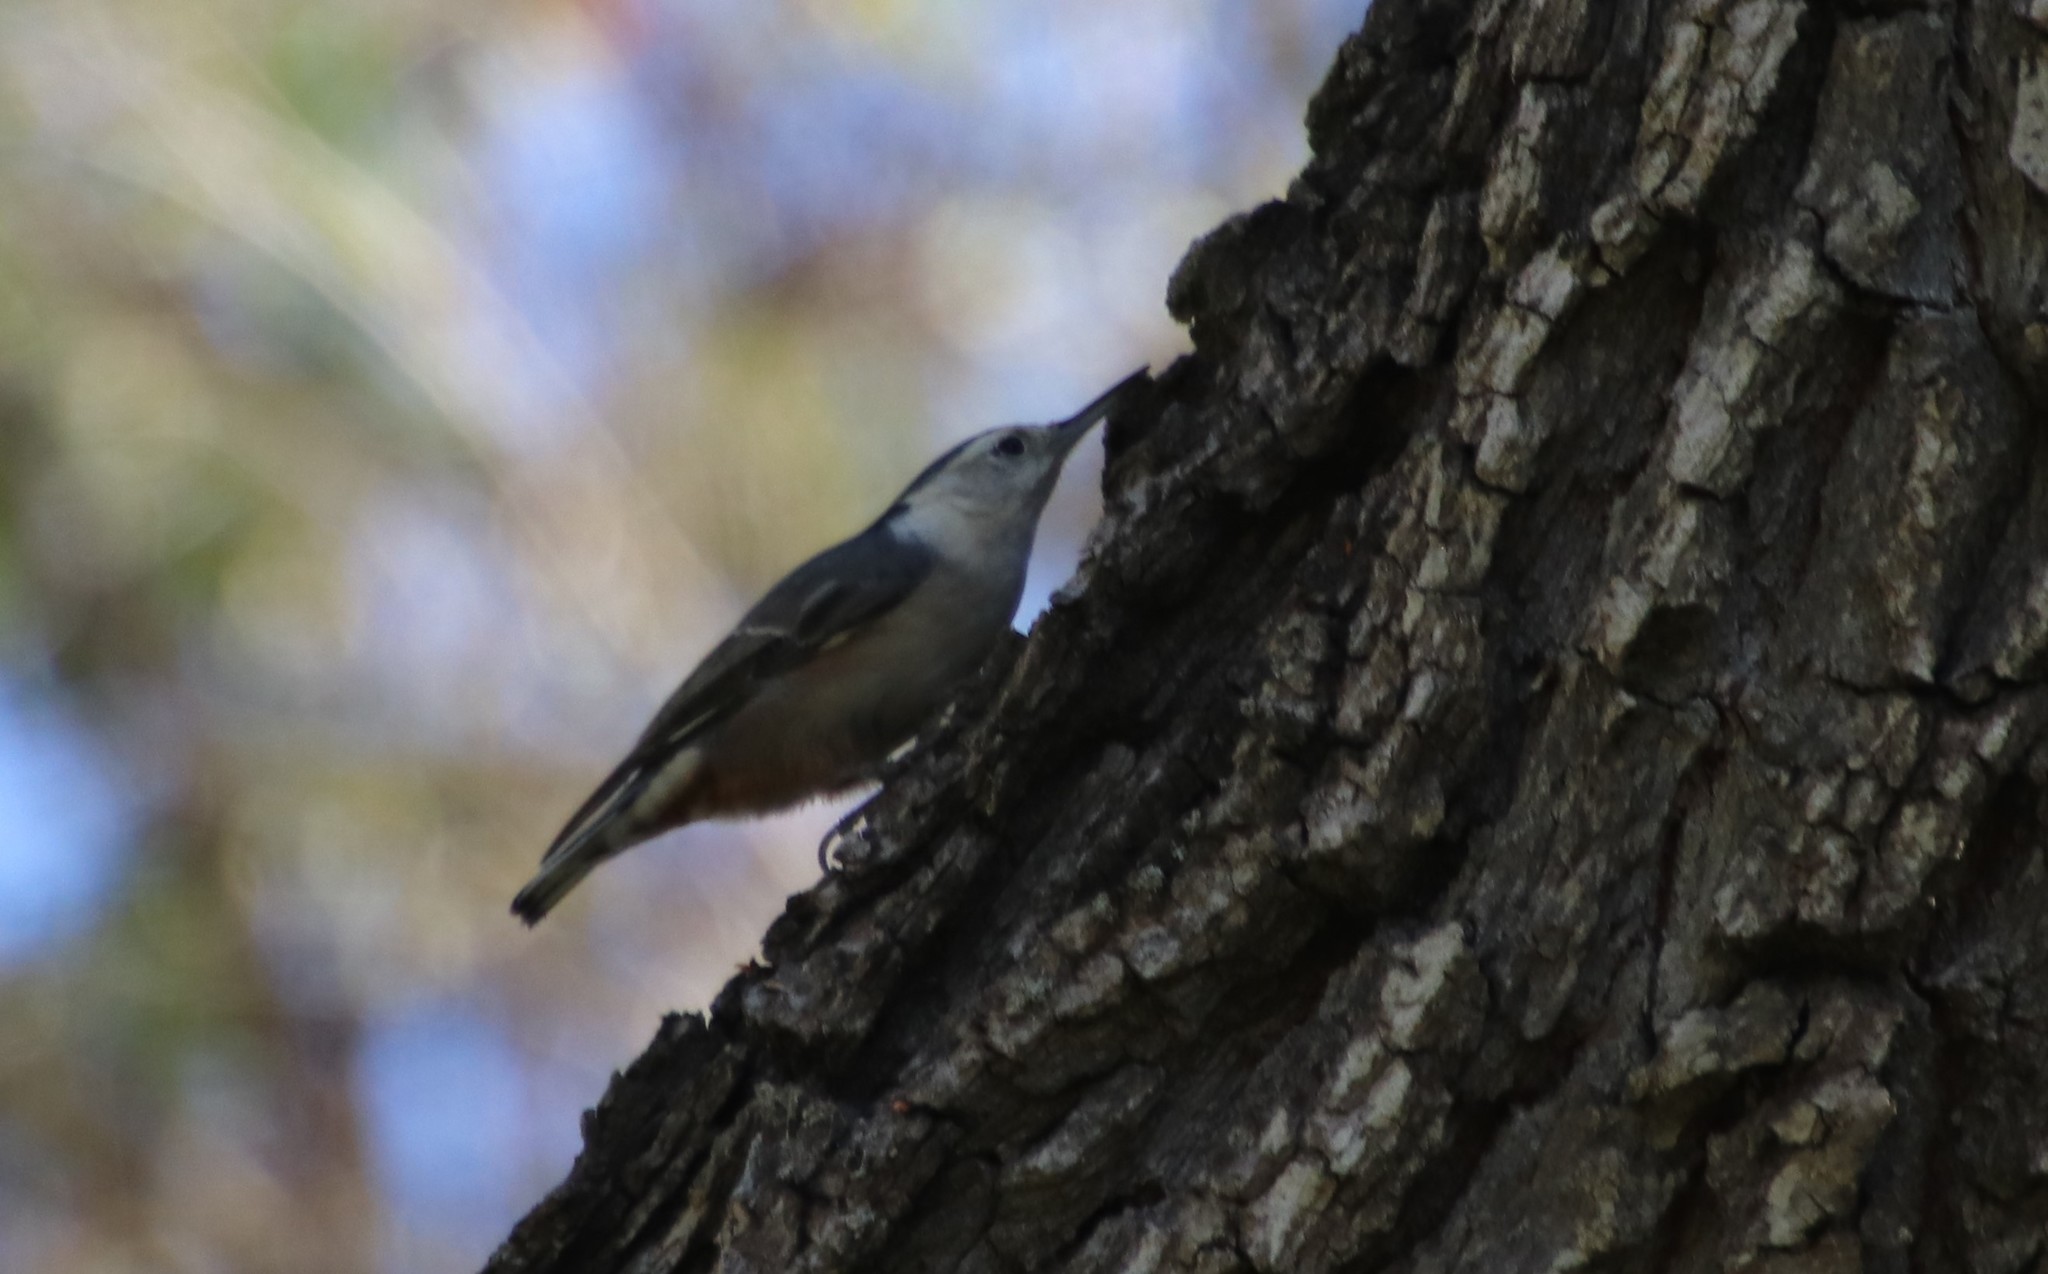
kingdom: Animalia
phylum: Chordata
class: Aves
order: Passeriformes
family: Sittidae
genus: Sitta
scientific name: Sitta carolinensis
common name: White-breasted nuthatch
